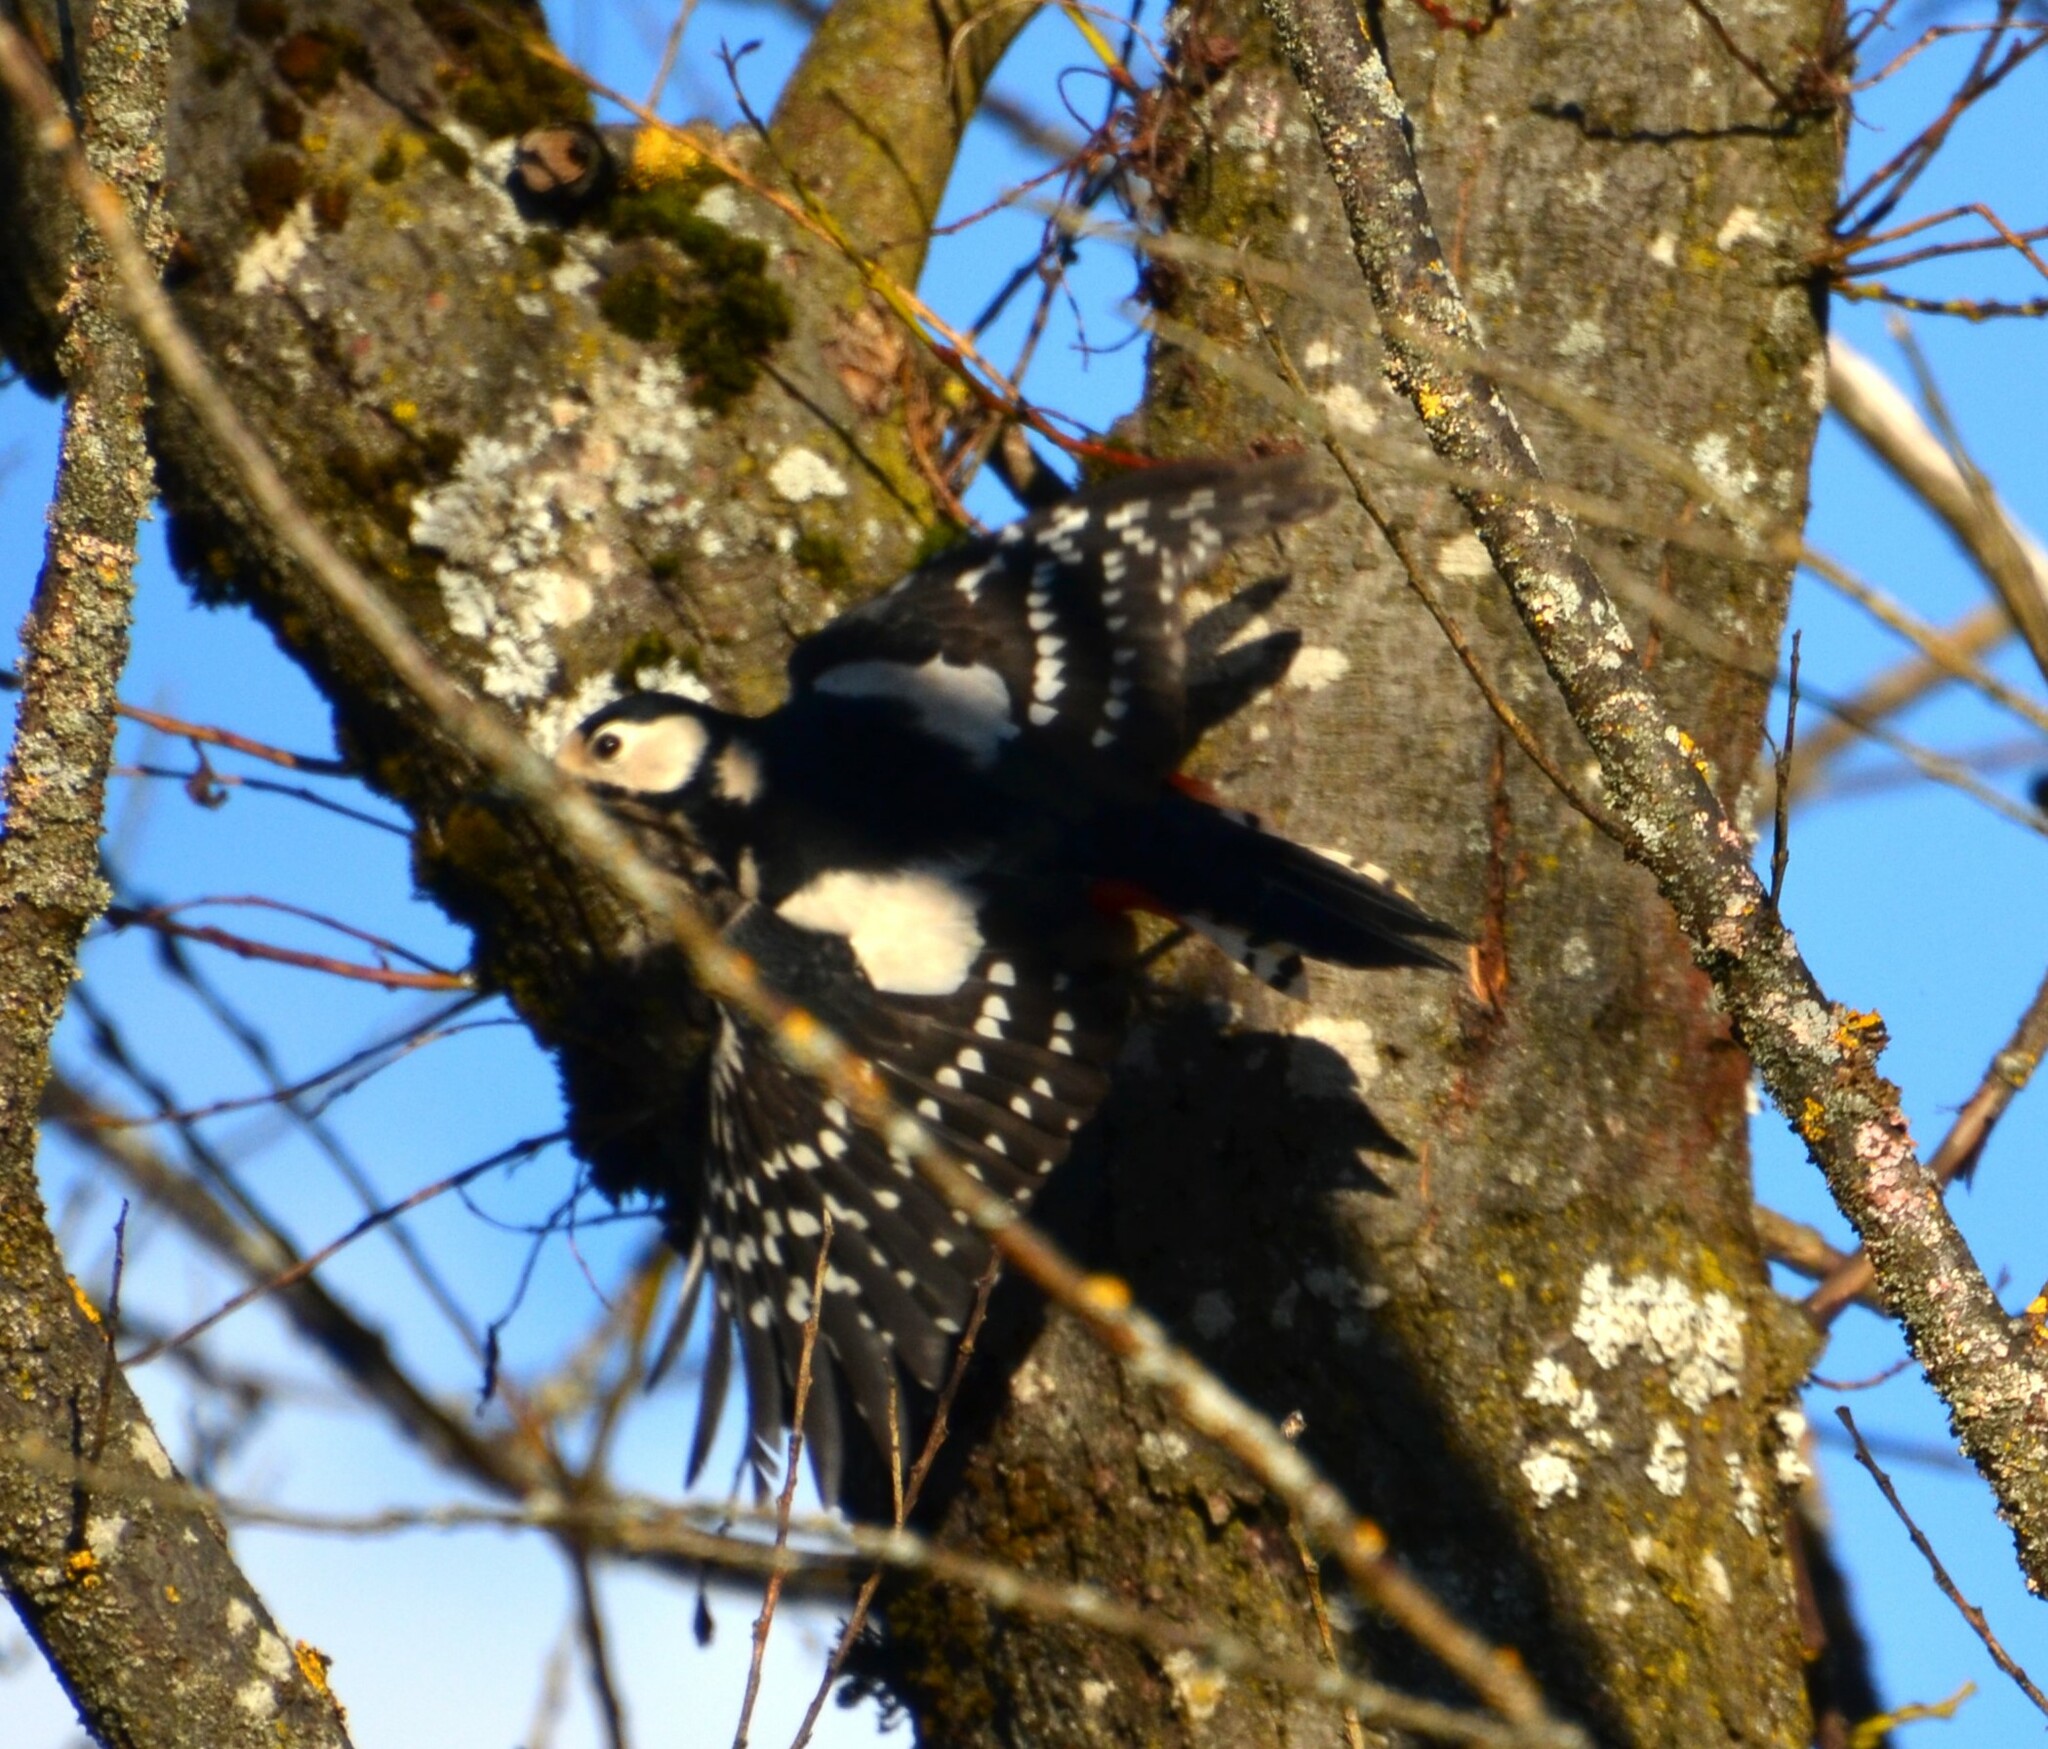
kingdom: Animalia
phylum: Chordata
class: Aves
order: Piciformes
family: Picidae
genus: Dendrocopos
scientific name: Dendrocopos major
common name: Great spotted woodpecker
